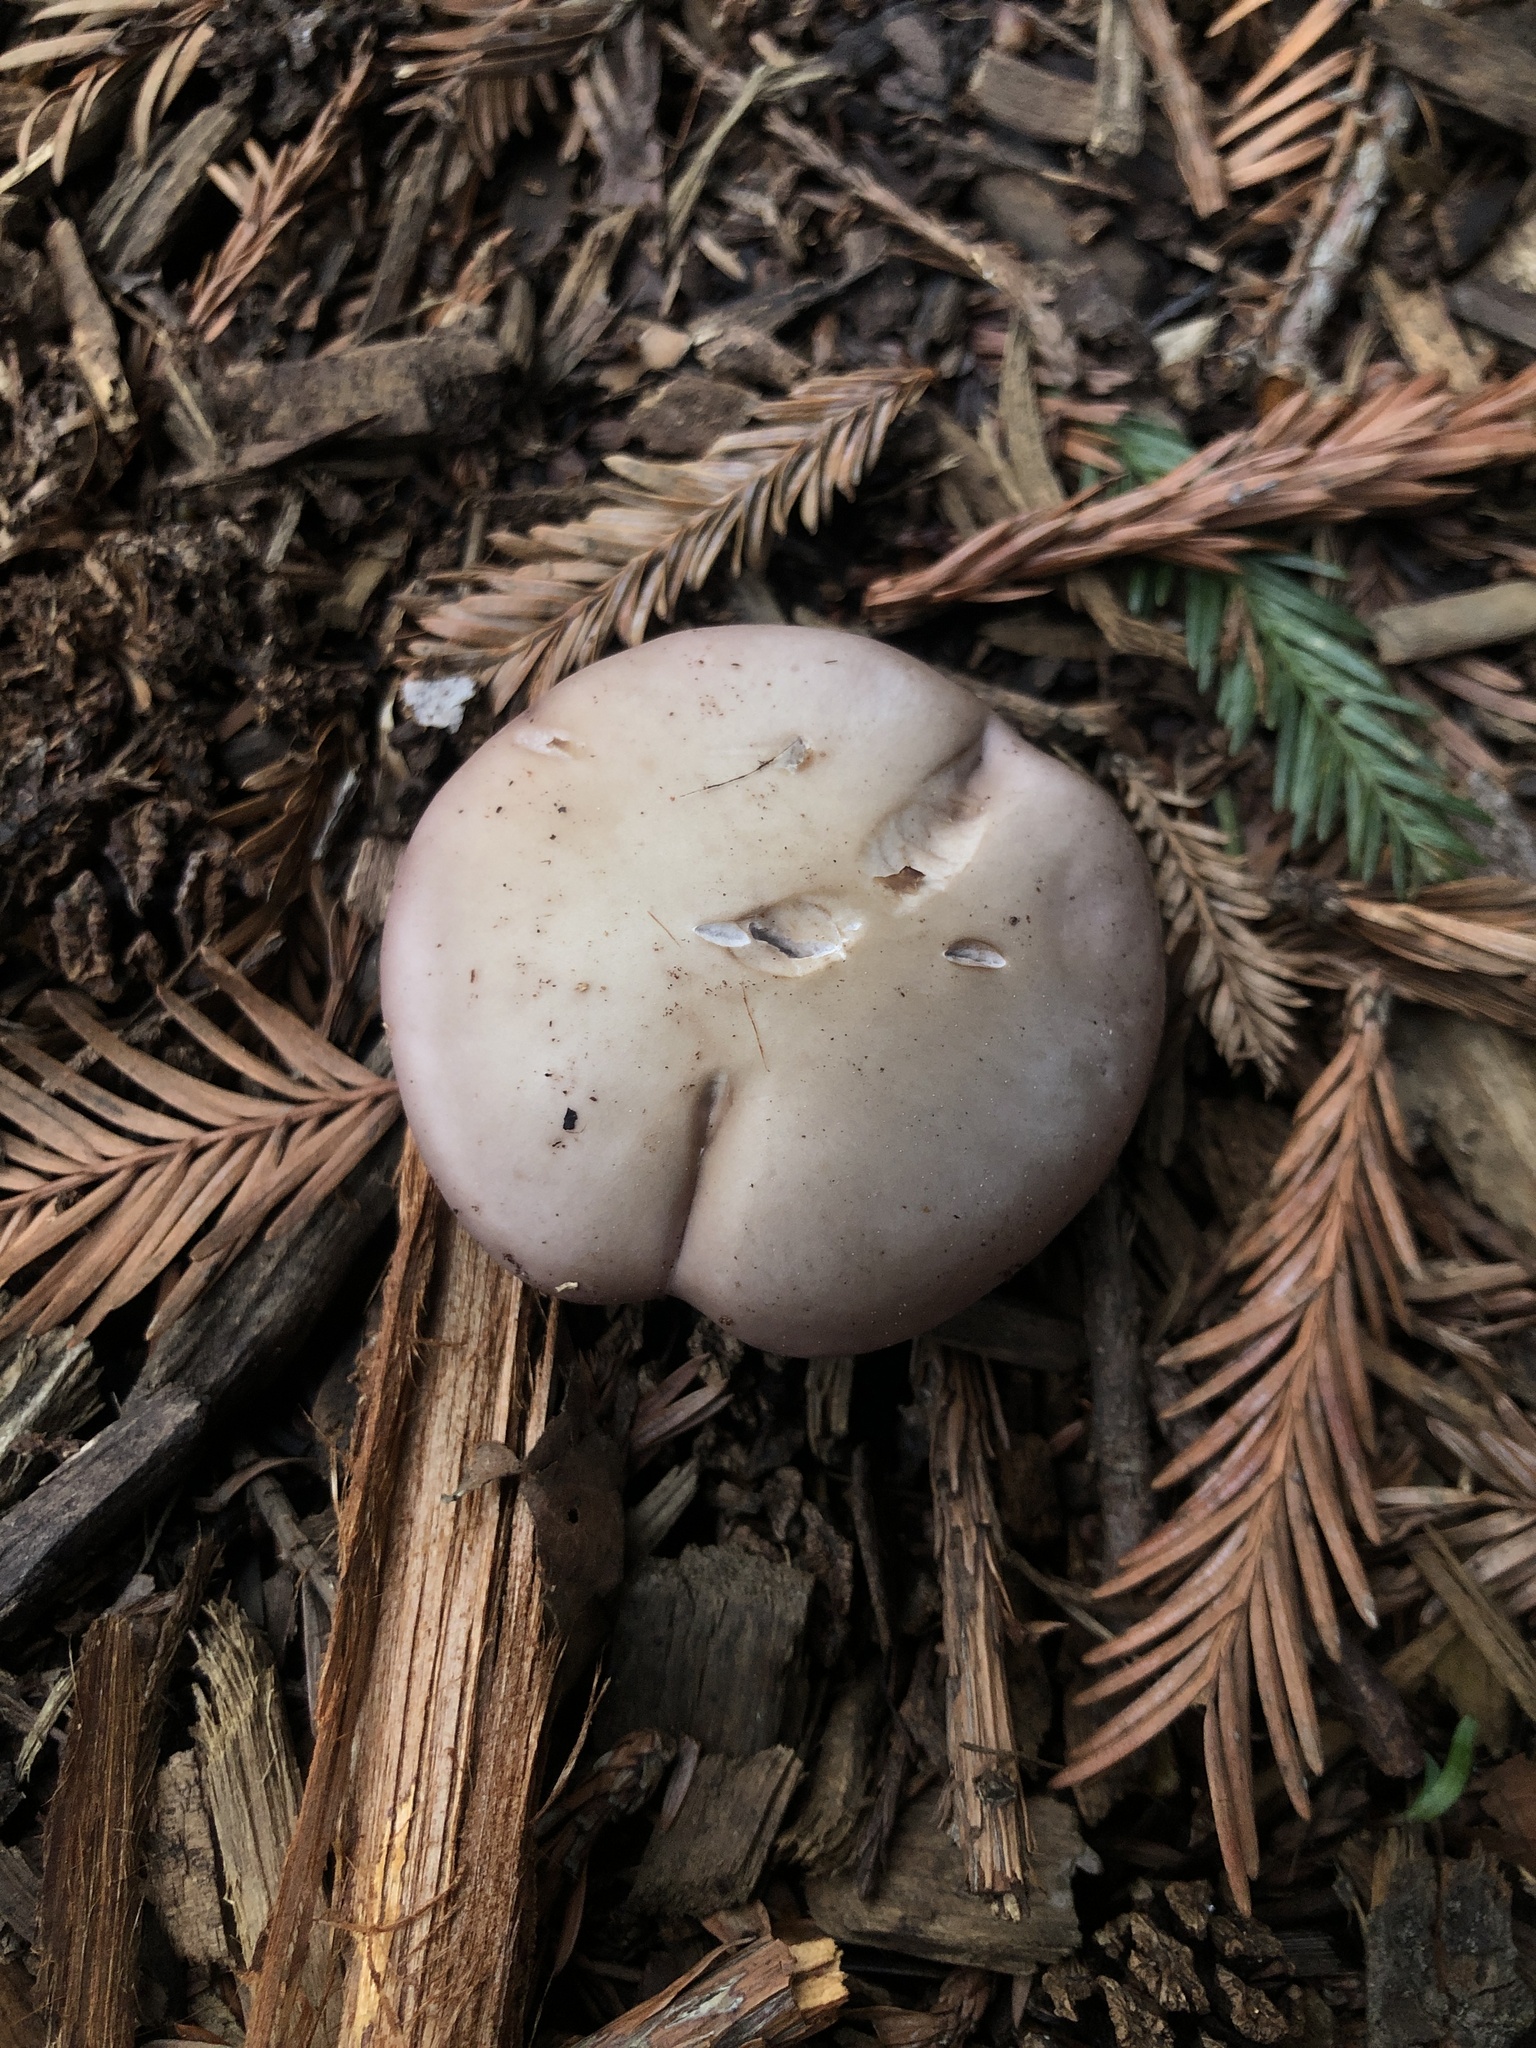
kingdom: Fungi
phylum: Basidiomycota
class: Agaricomycetes
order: Agaricales
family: Tricholomataceae
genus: Collybia
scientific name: Collybia
